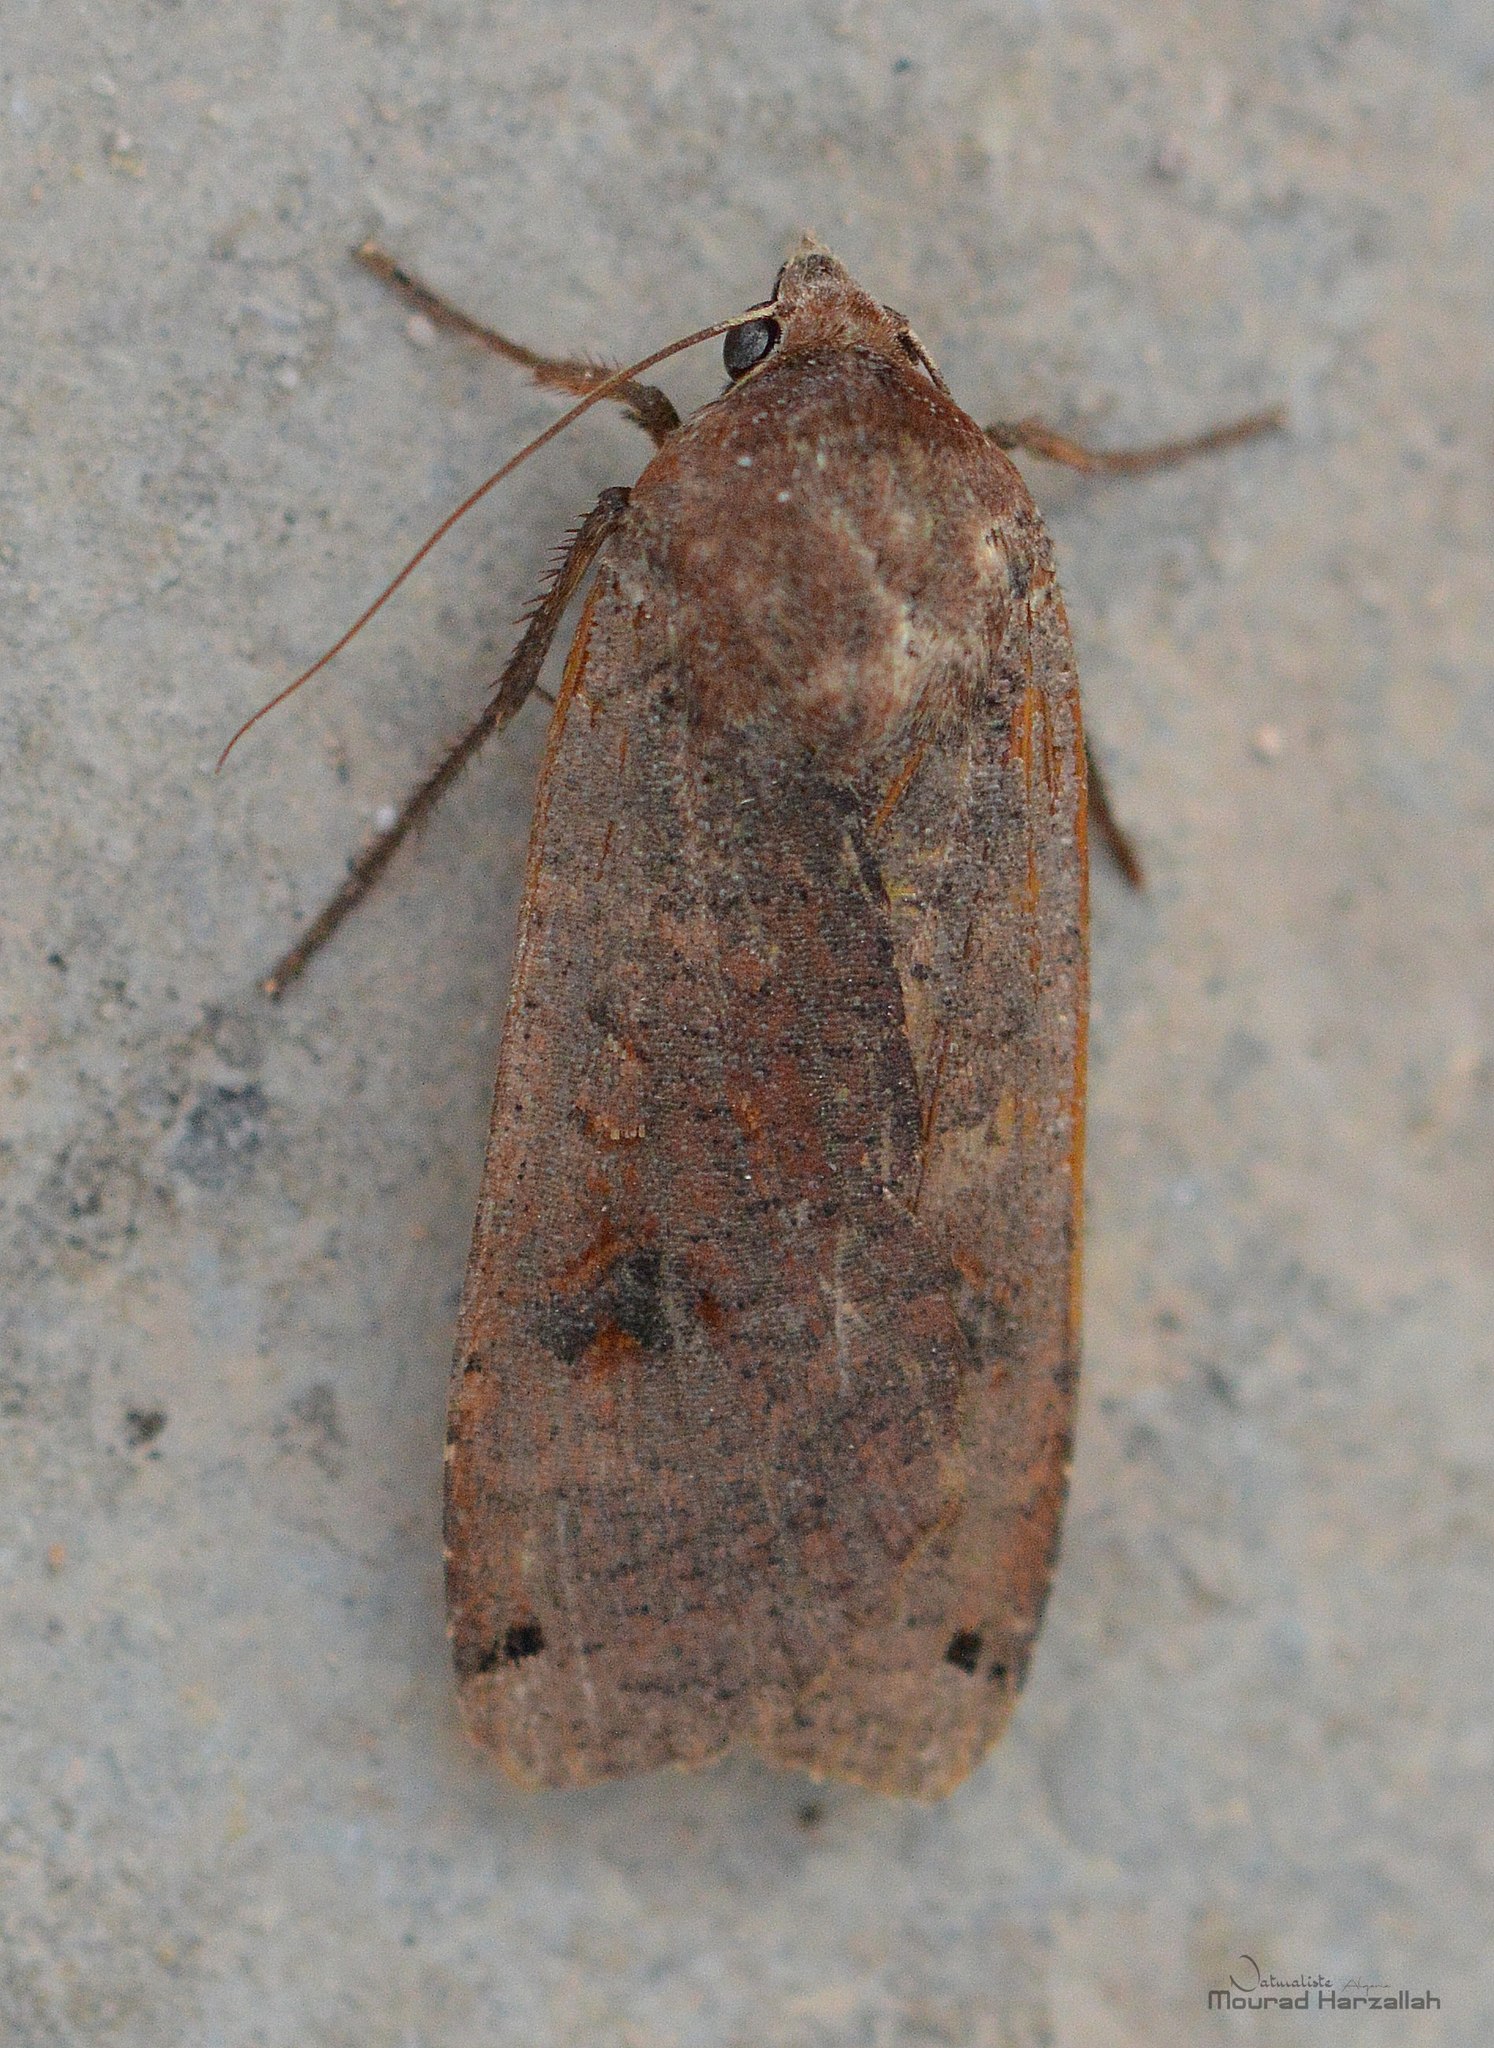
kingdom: Animalia
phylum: Arthropoda
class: Insecta
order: Lepidoptera
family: Noctuidae
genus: Noctua
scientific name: Noctua pronuba
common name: Large yellow underwing
